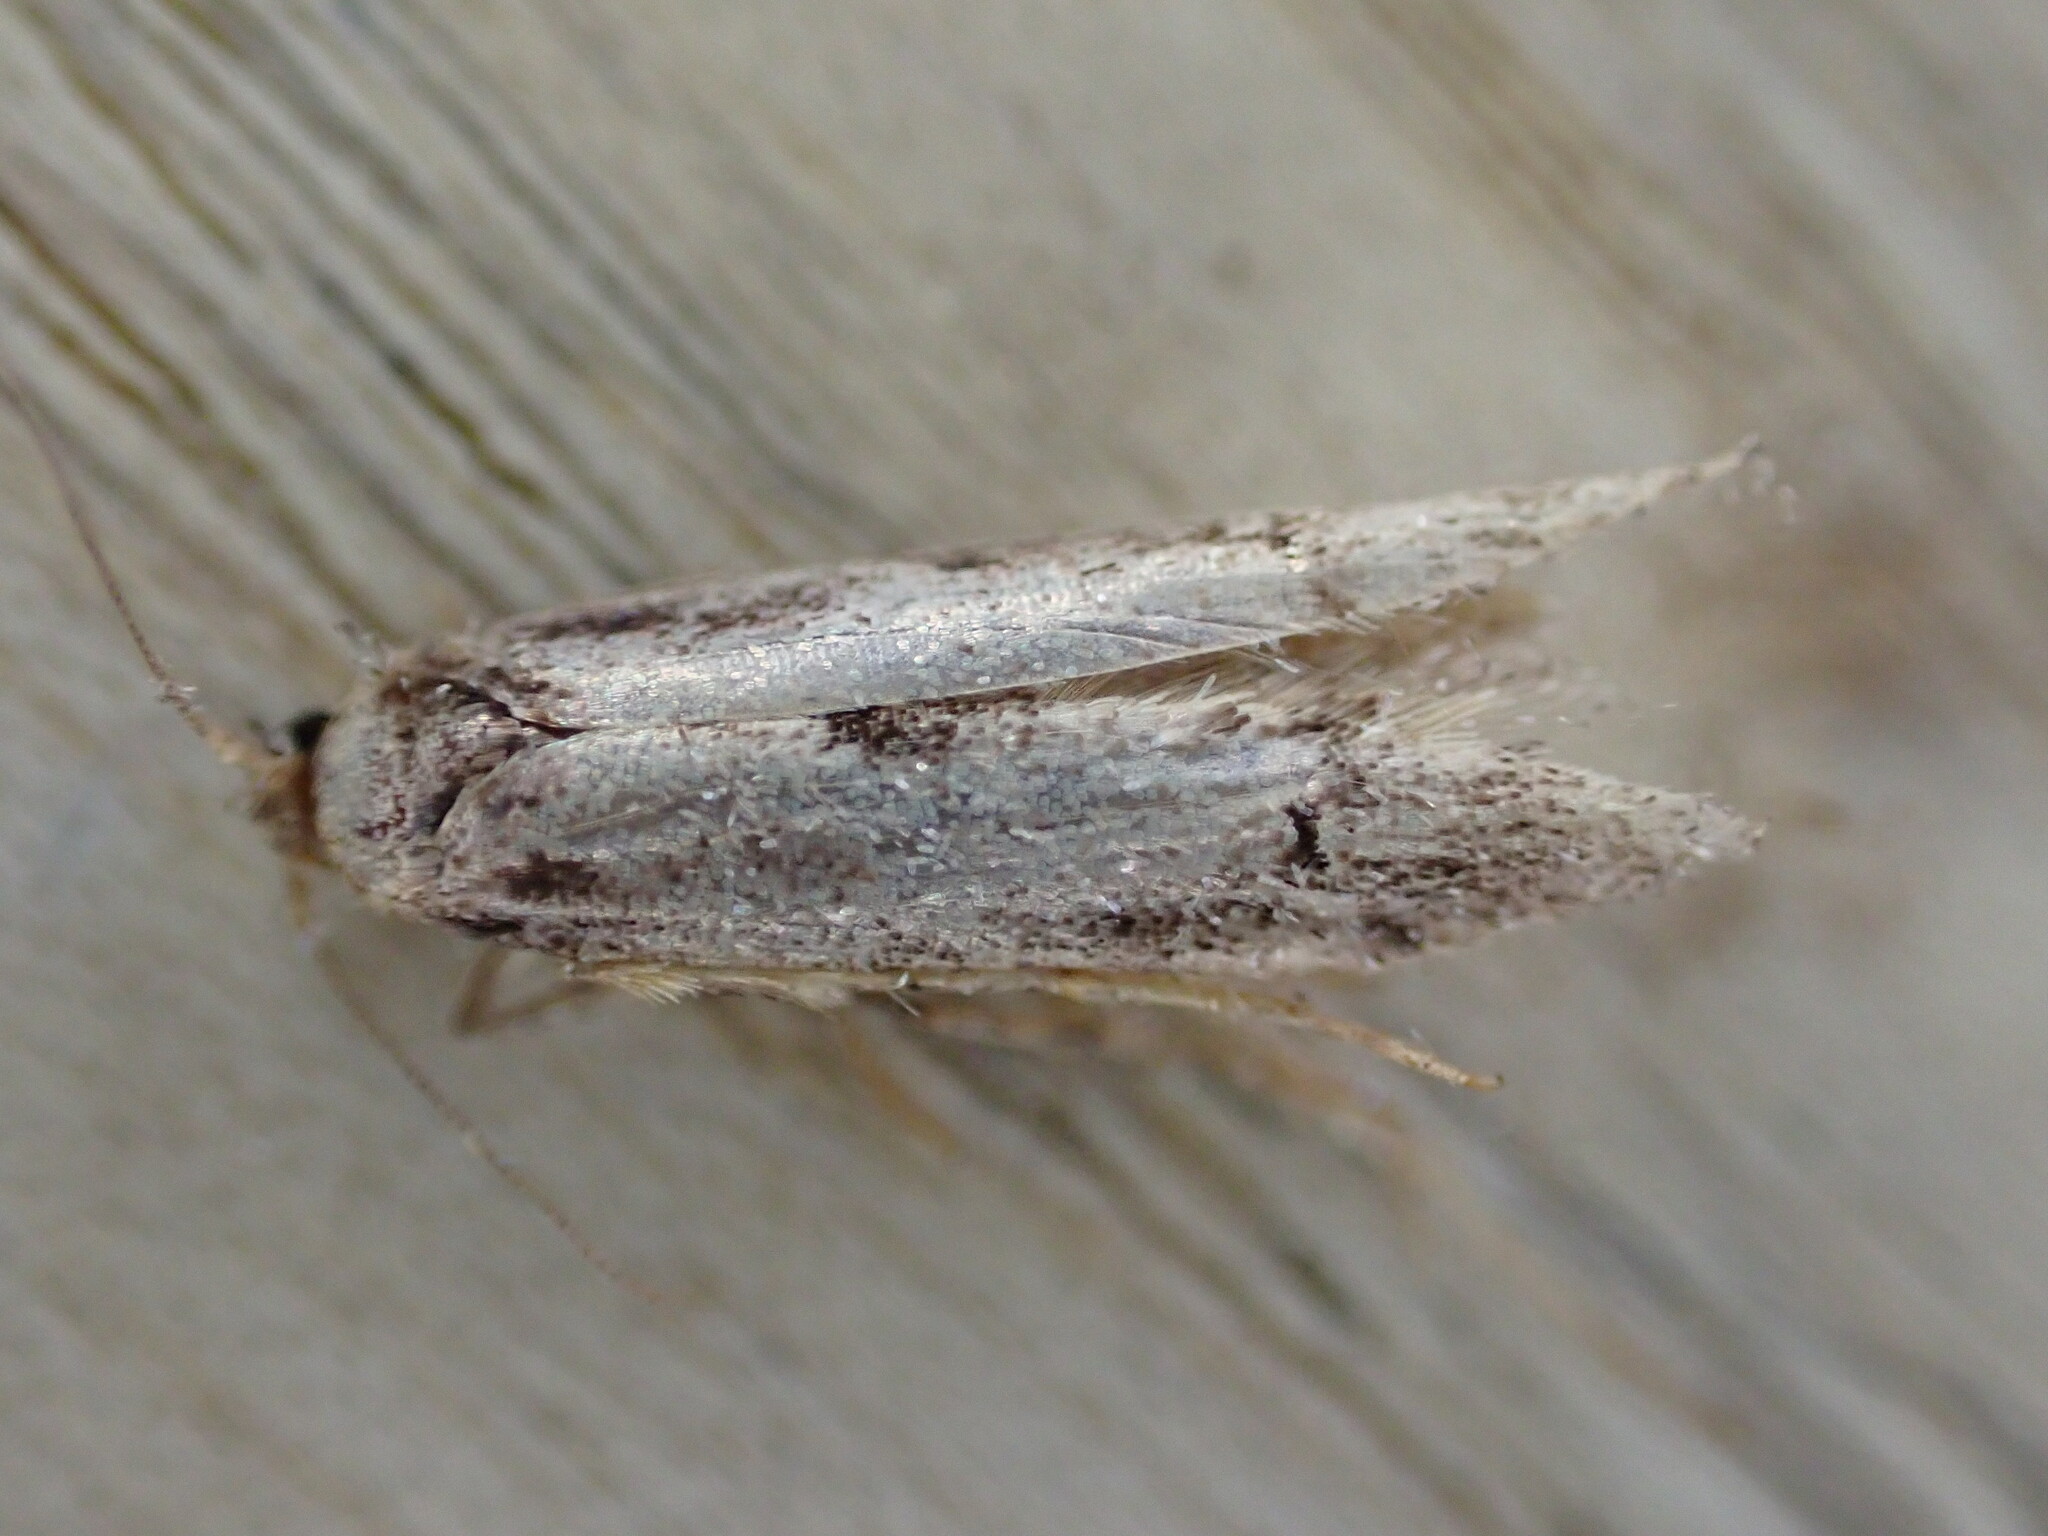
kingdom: Animalia
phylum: Arthropoda
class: Insecta
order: Lepidoptera
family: Blastobasidae
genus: Blastobasis
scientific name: Blastobasis adustella
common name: Dingy dowd
